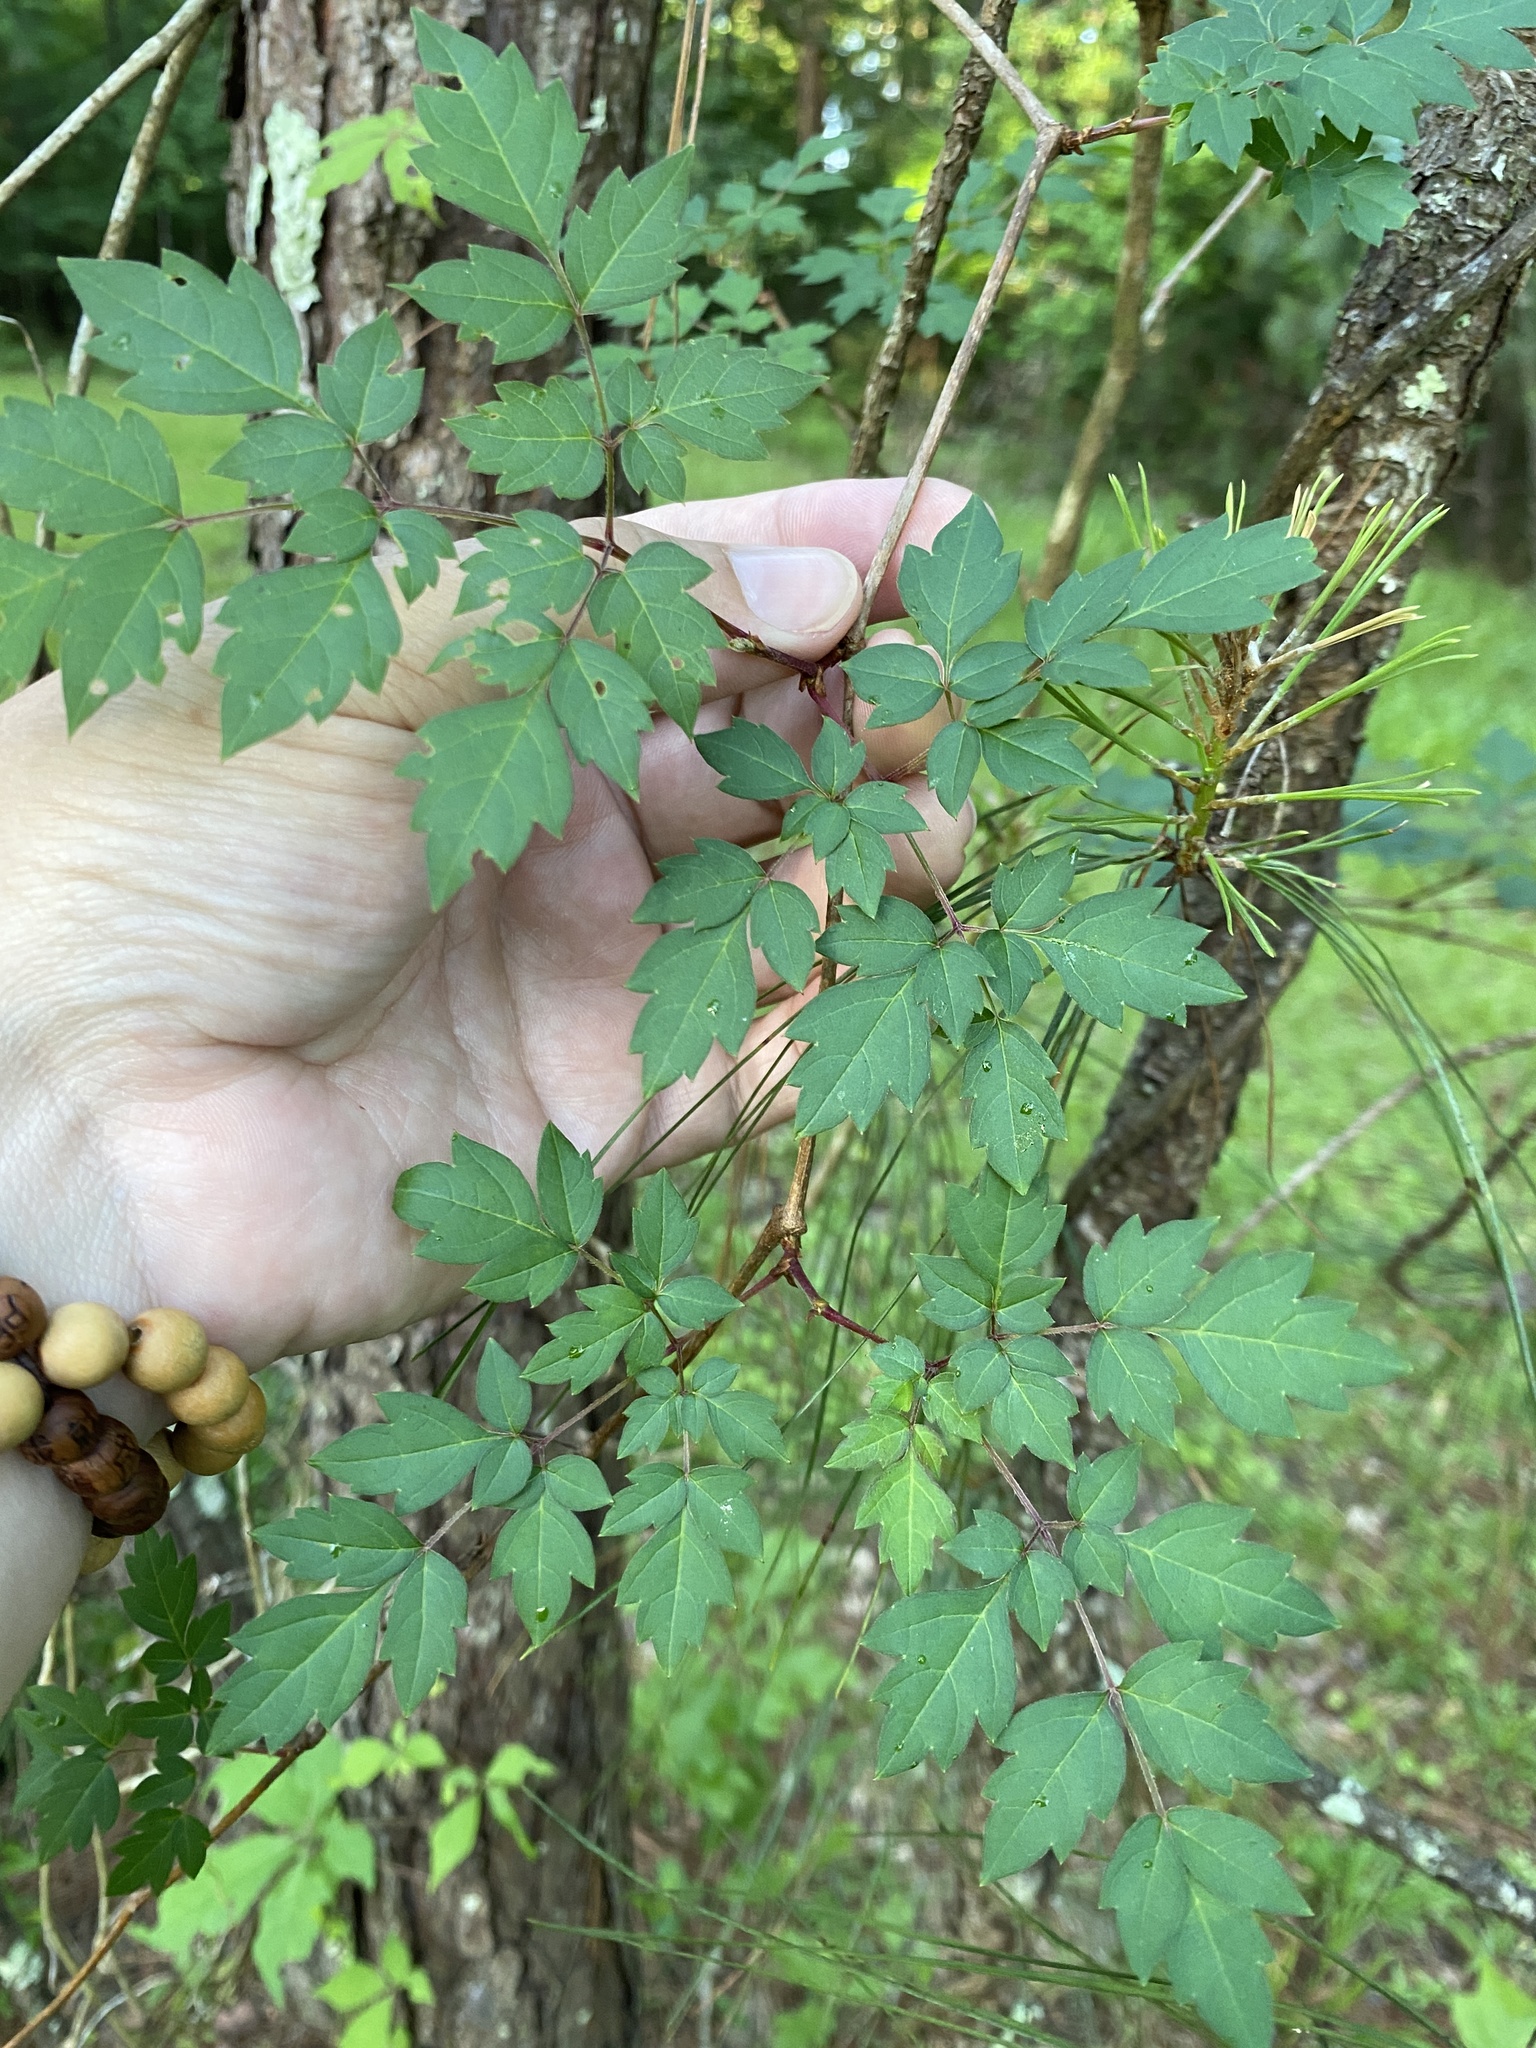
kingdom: Plantae
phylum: Tracheophyta
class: Magnoliopsida
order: Vitales
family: Vitaceae
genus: Nekemias
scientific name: Nekemias arborea
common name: Peppervine
